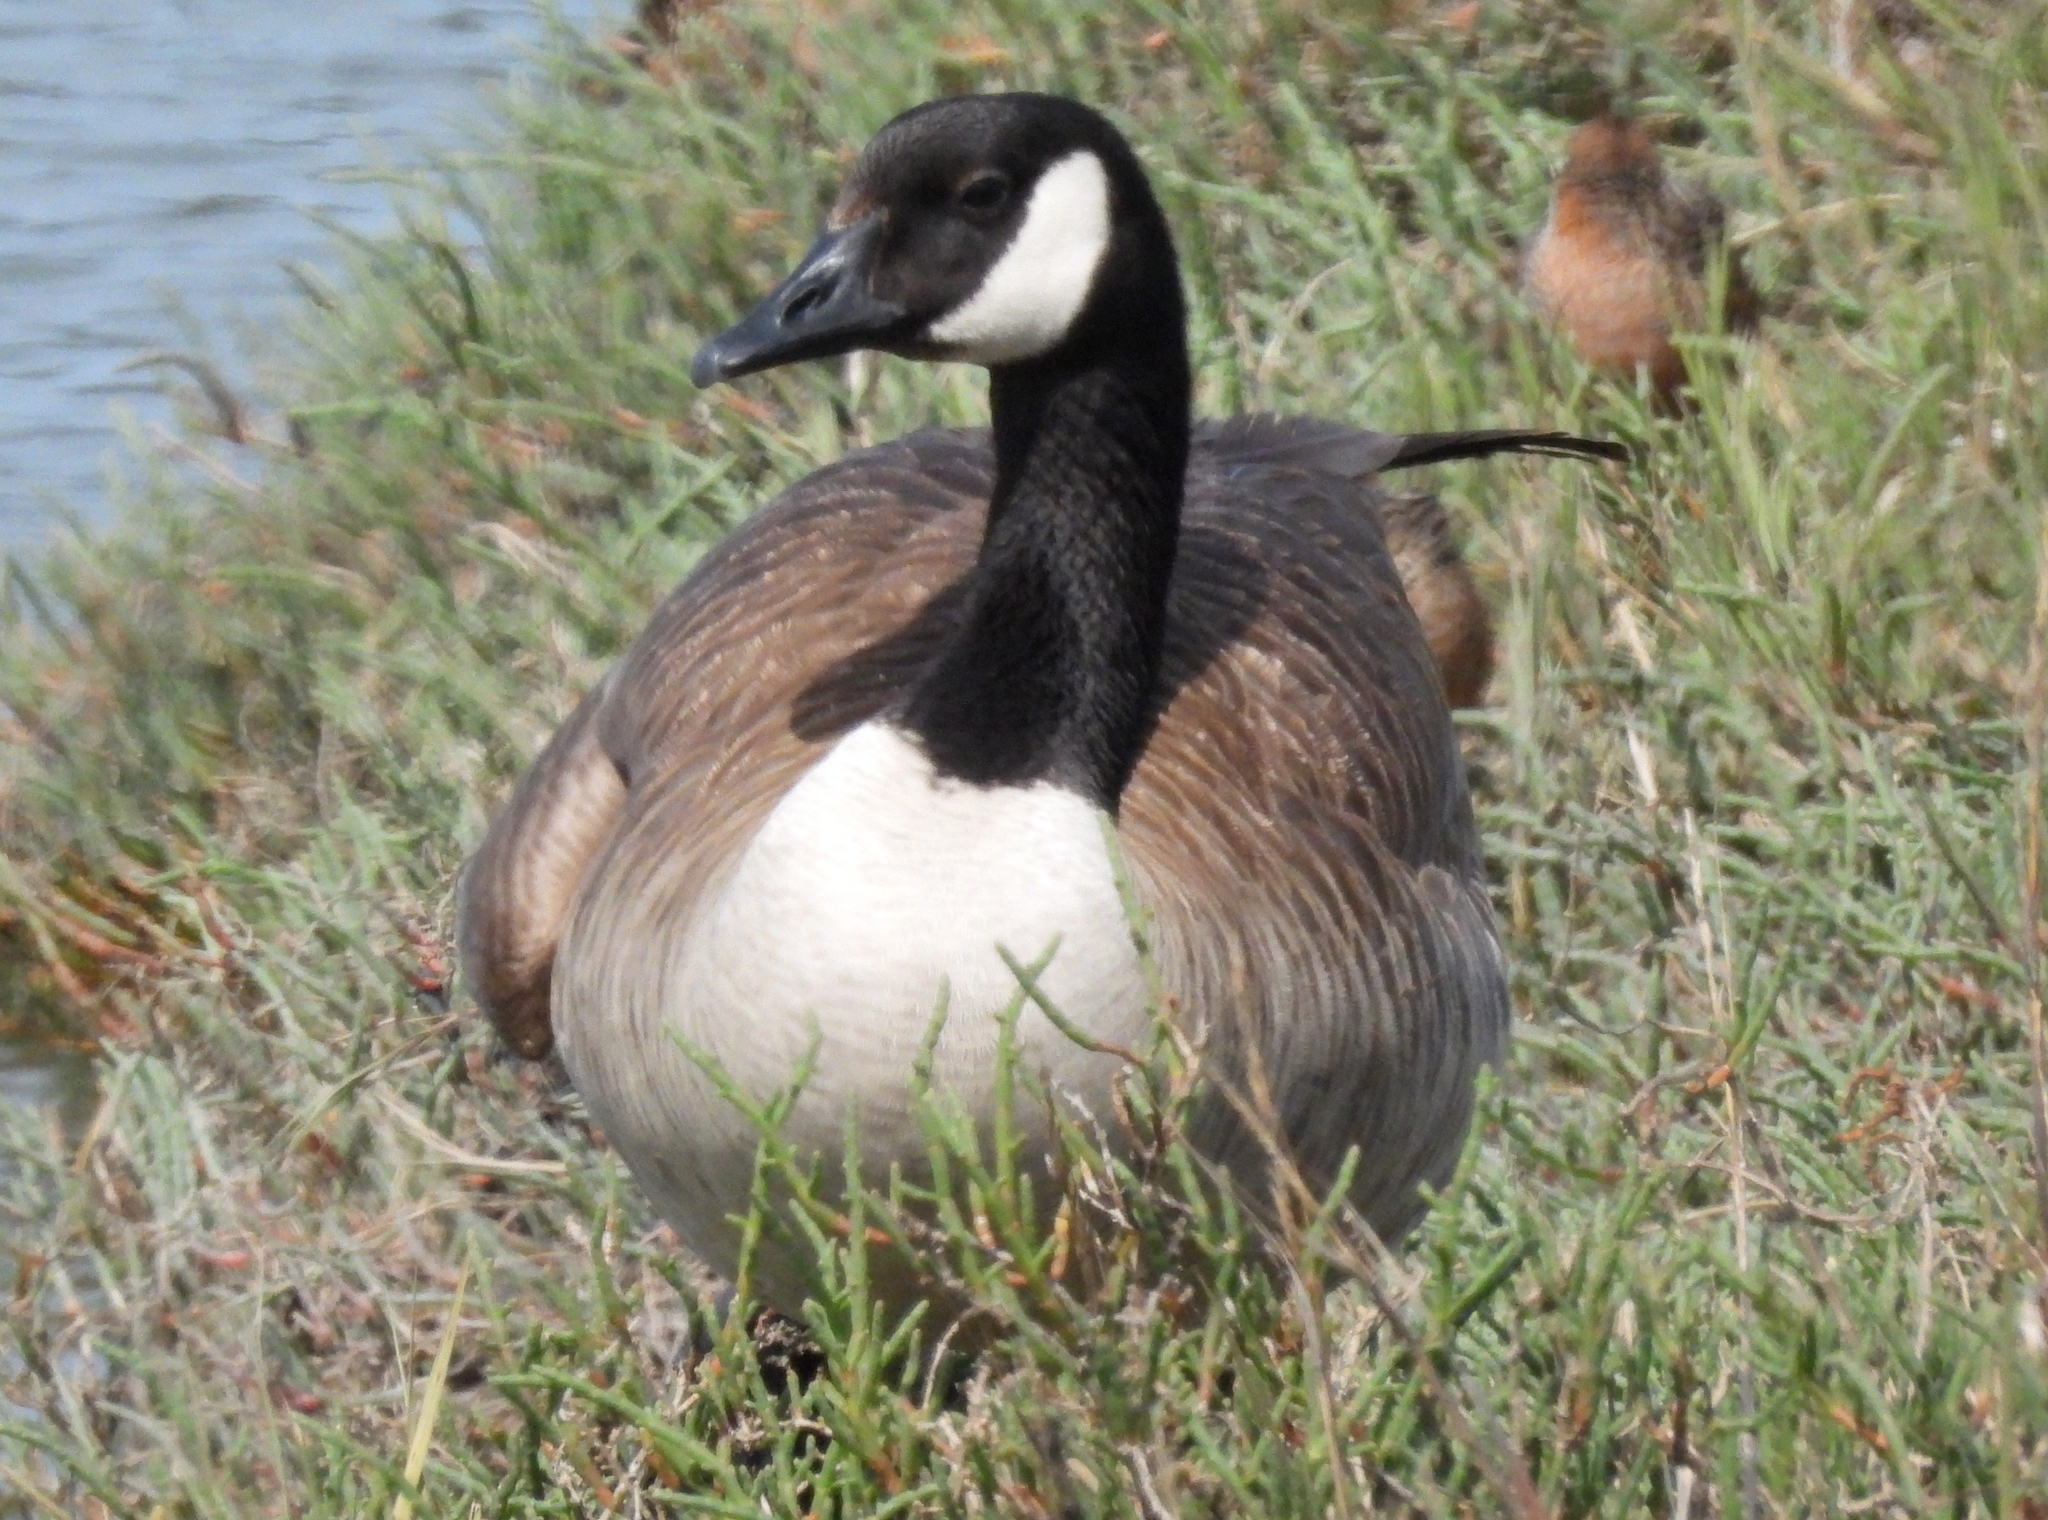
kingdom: Animalia
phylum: Chordata
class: Aves
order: Anseriformes
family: Anatidae
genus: Branta
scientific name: Branta canadensis
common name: Canada goose
